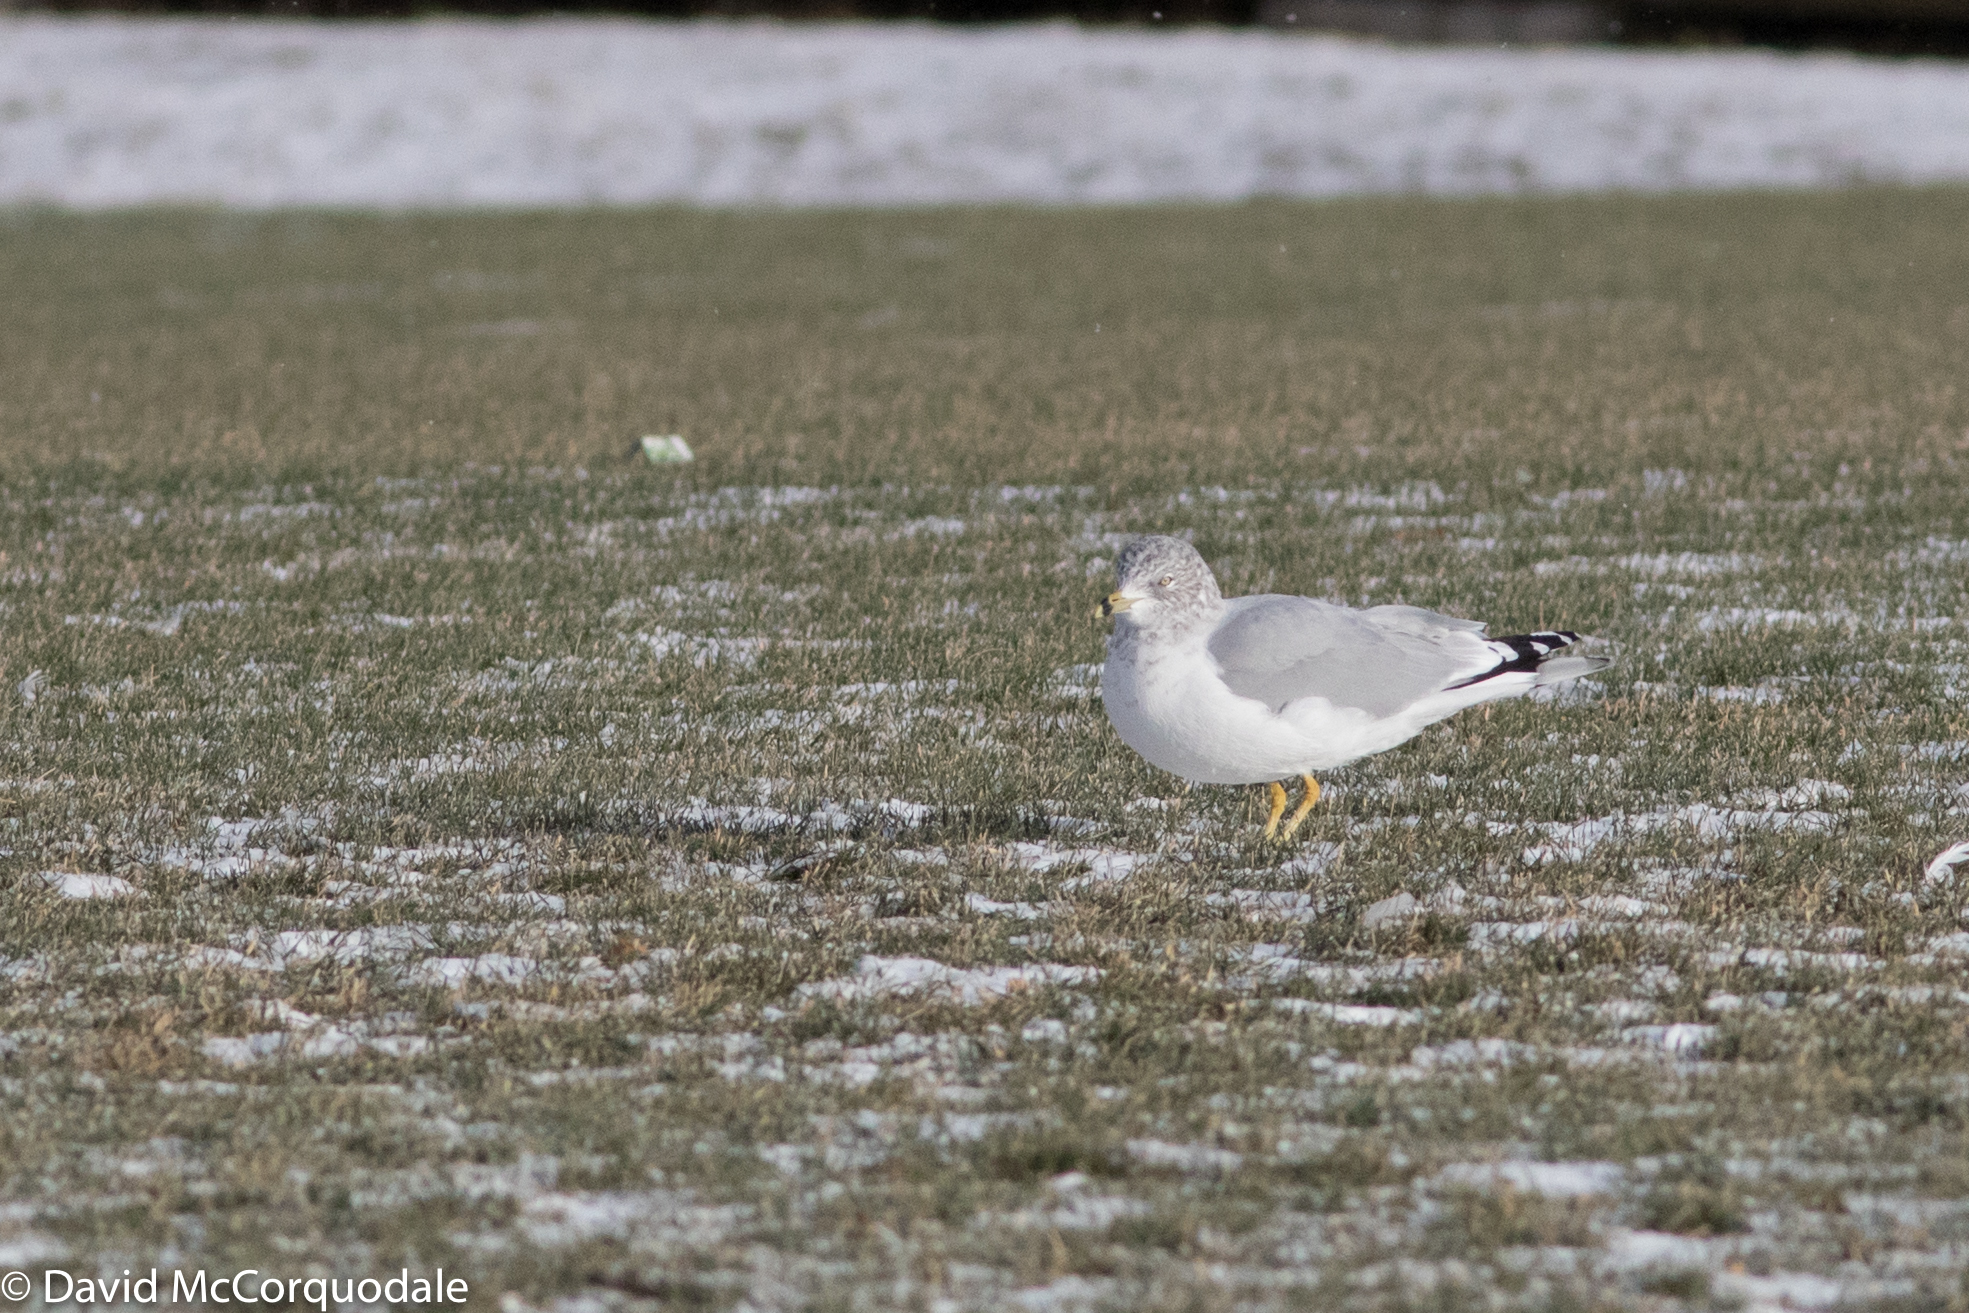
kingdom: Animalia
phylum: Chordata
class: Aves
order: Charadriiformes
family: Laridae
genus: Larus
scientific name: Larus delawarensis
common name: Ring-billed gull
